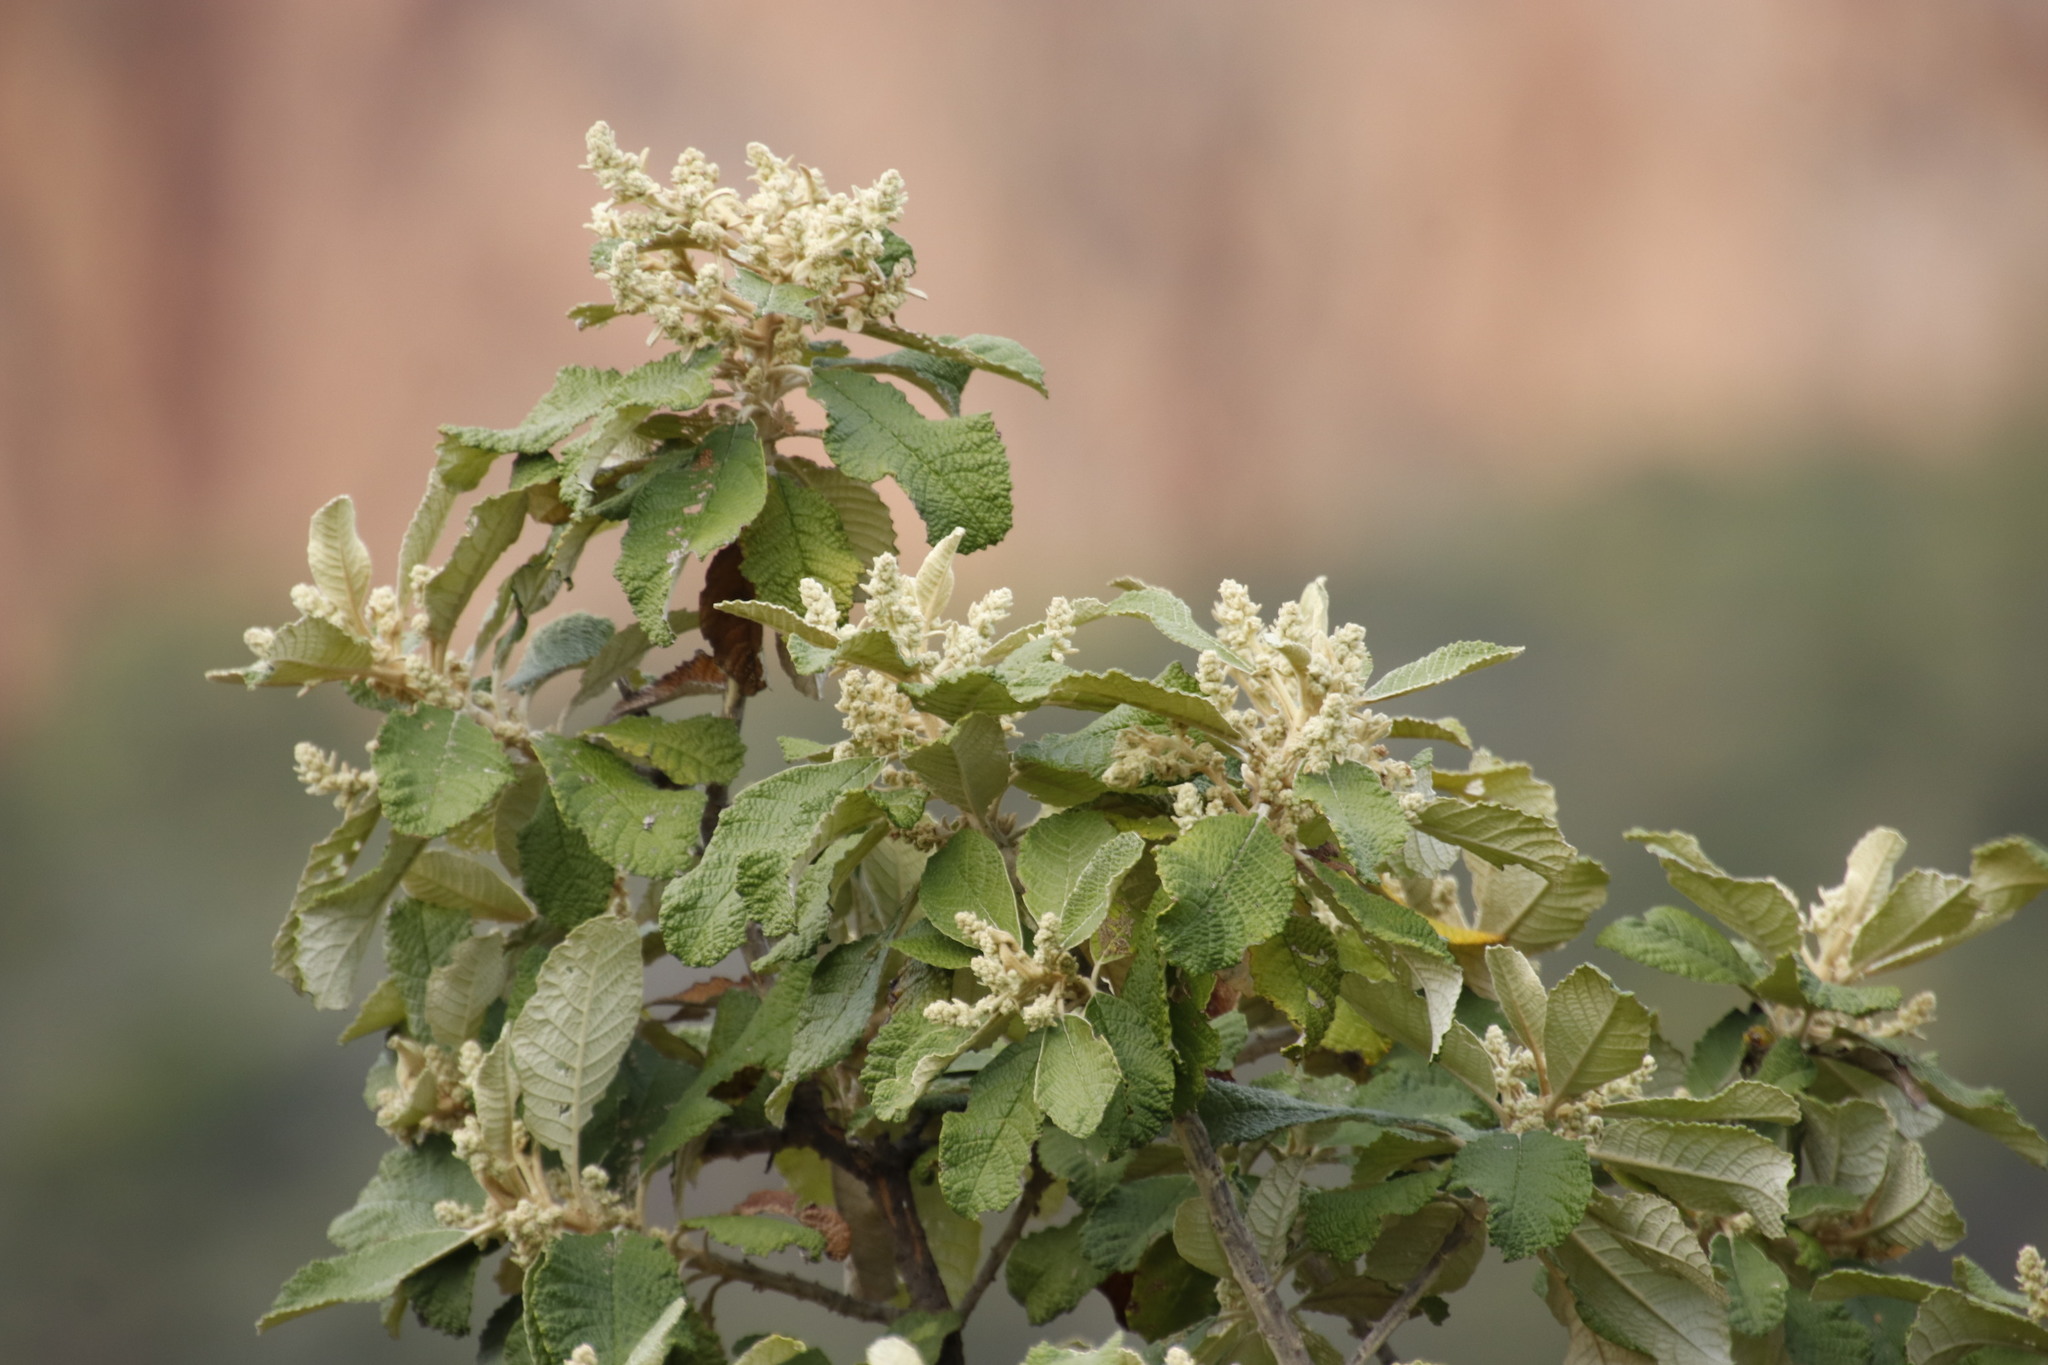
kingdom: Plantae
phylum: Tracheophyta
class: Magnoliopsida
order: Asterales
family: Asteraceae
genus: Tarchonanthus
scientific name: Tarchonanthus trilobus
